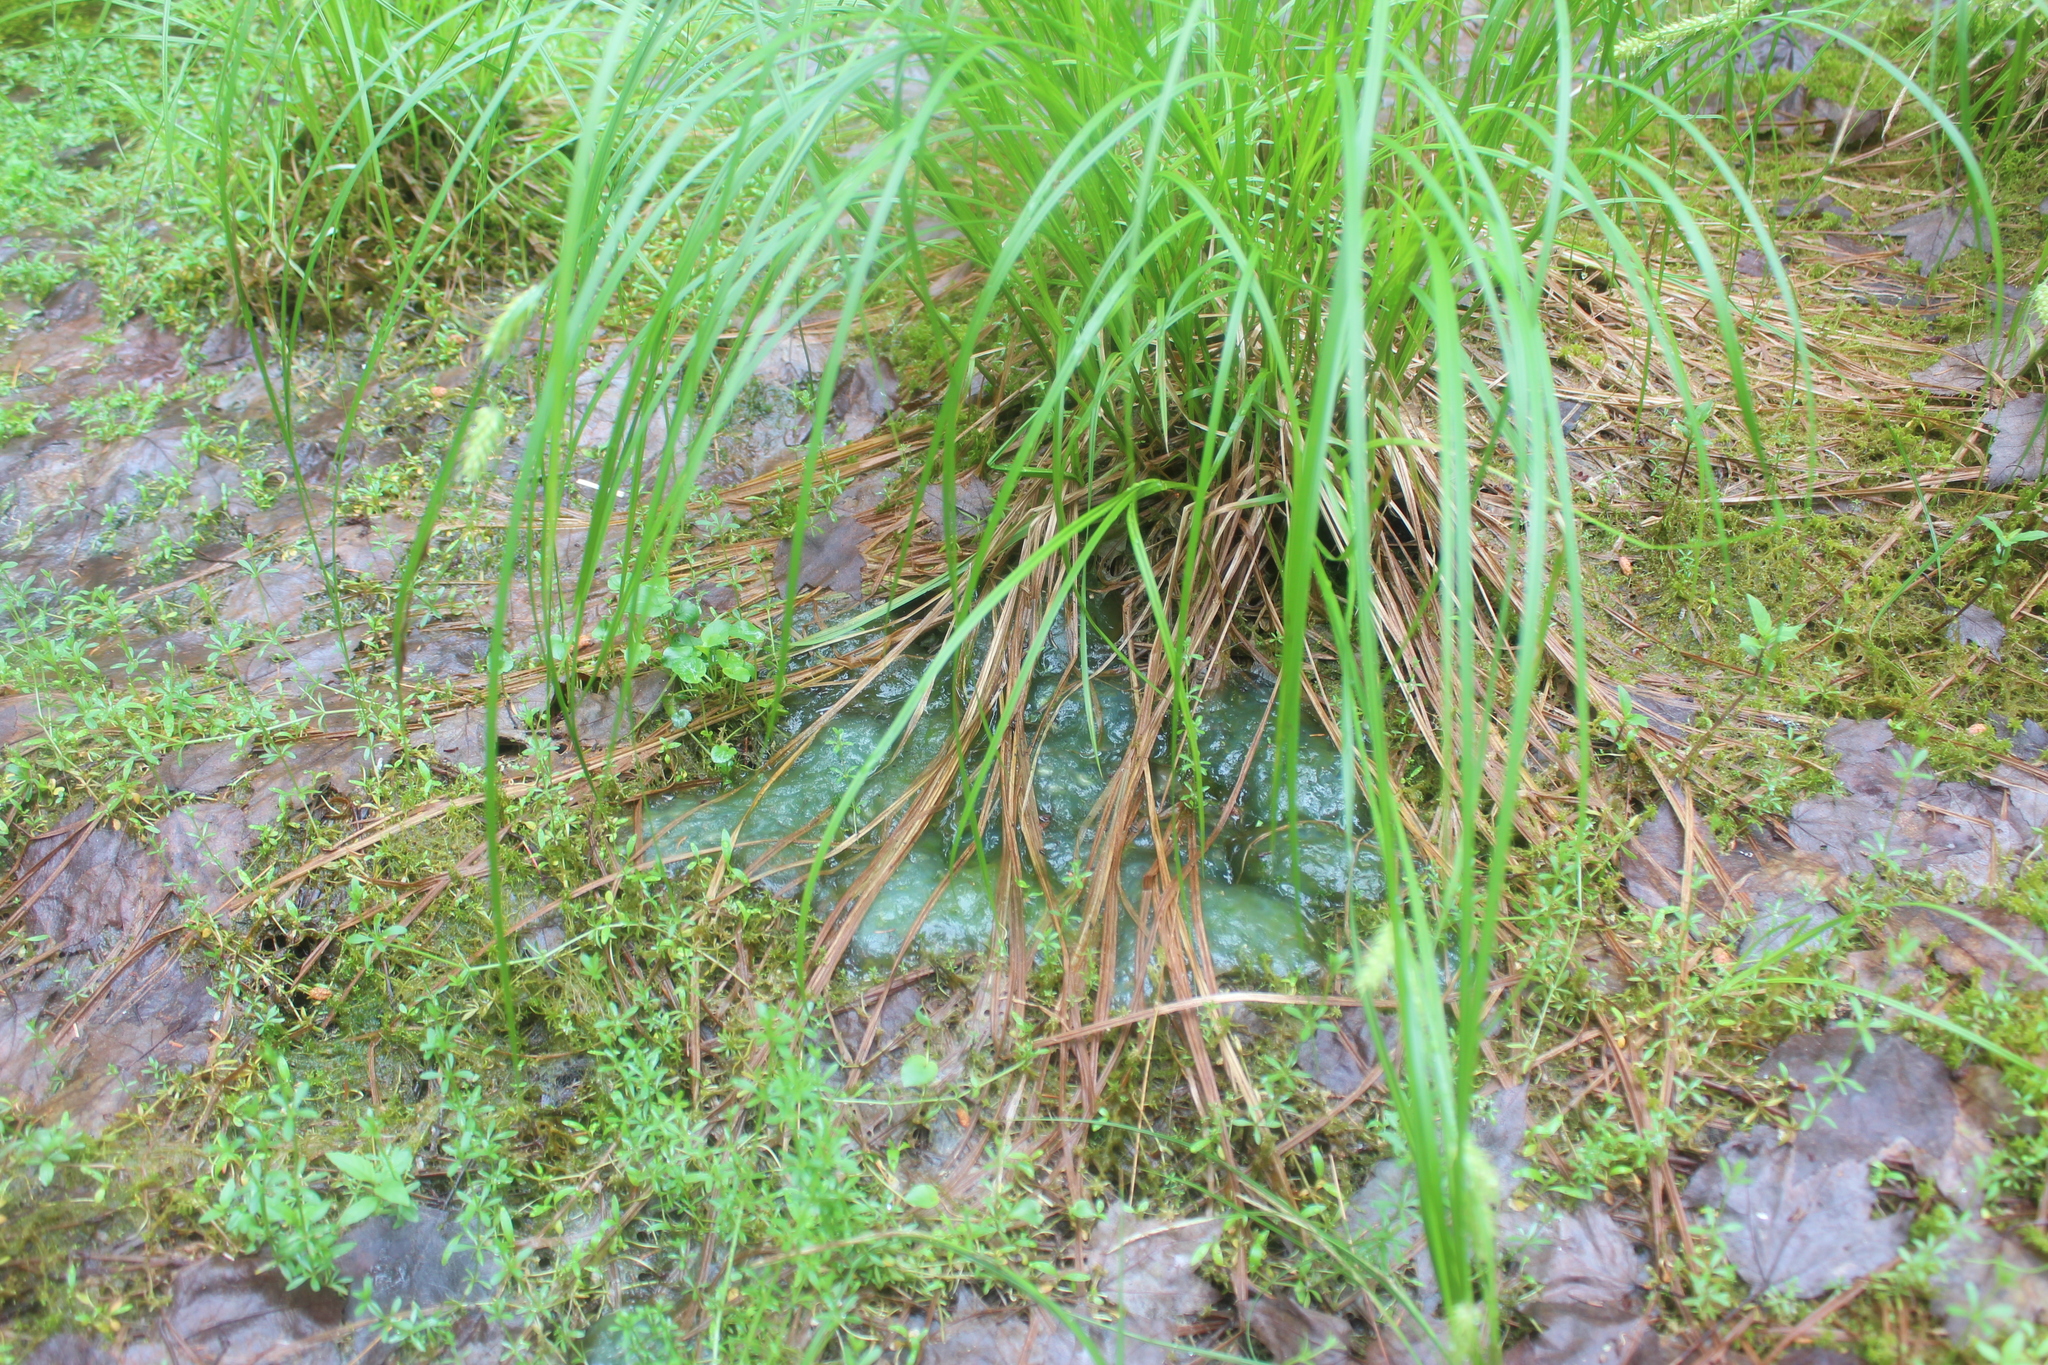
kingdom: Animalia
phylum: Chordata
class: Amphibia
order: Caudata
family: Ambystomatidae
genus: Ambystoma
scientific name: Ambystoma maculatum
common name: Spotted salamander
